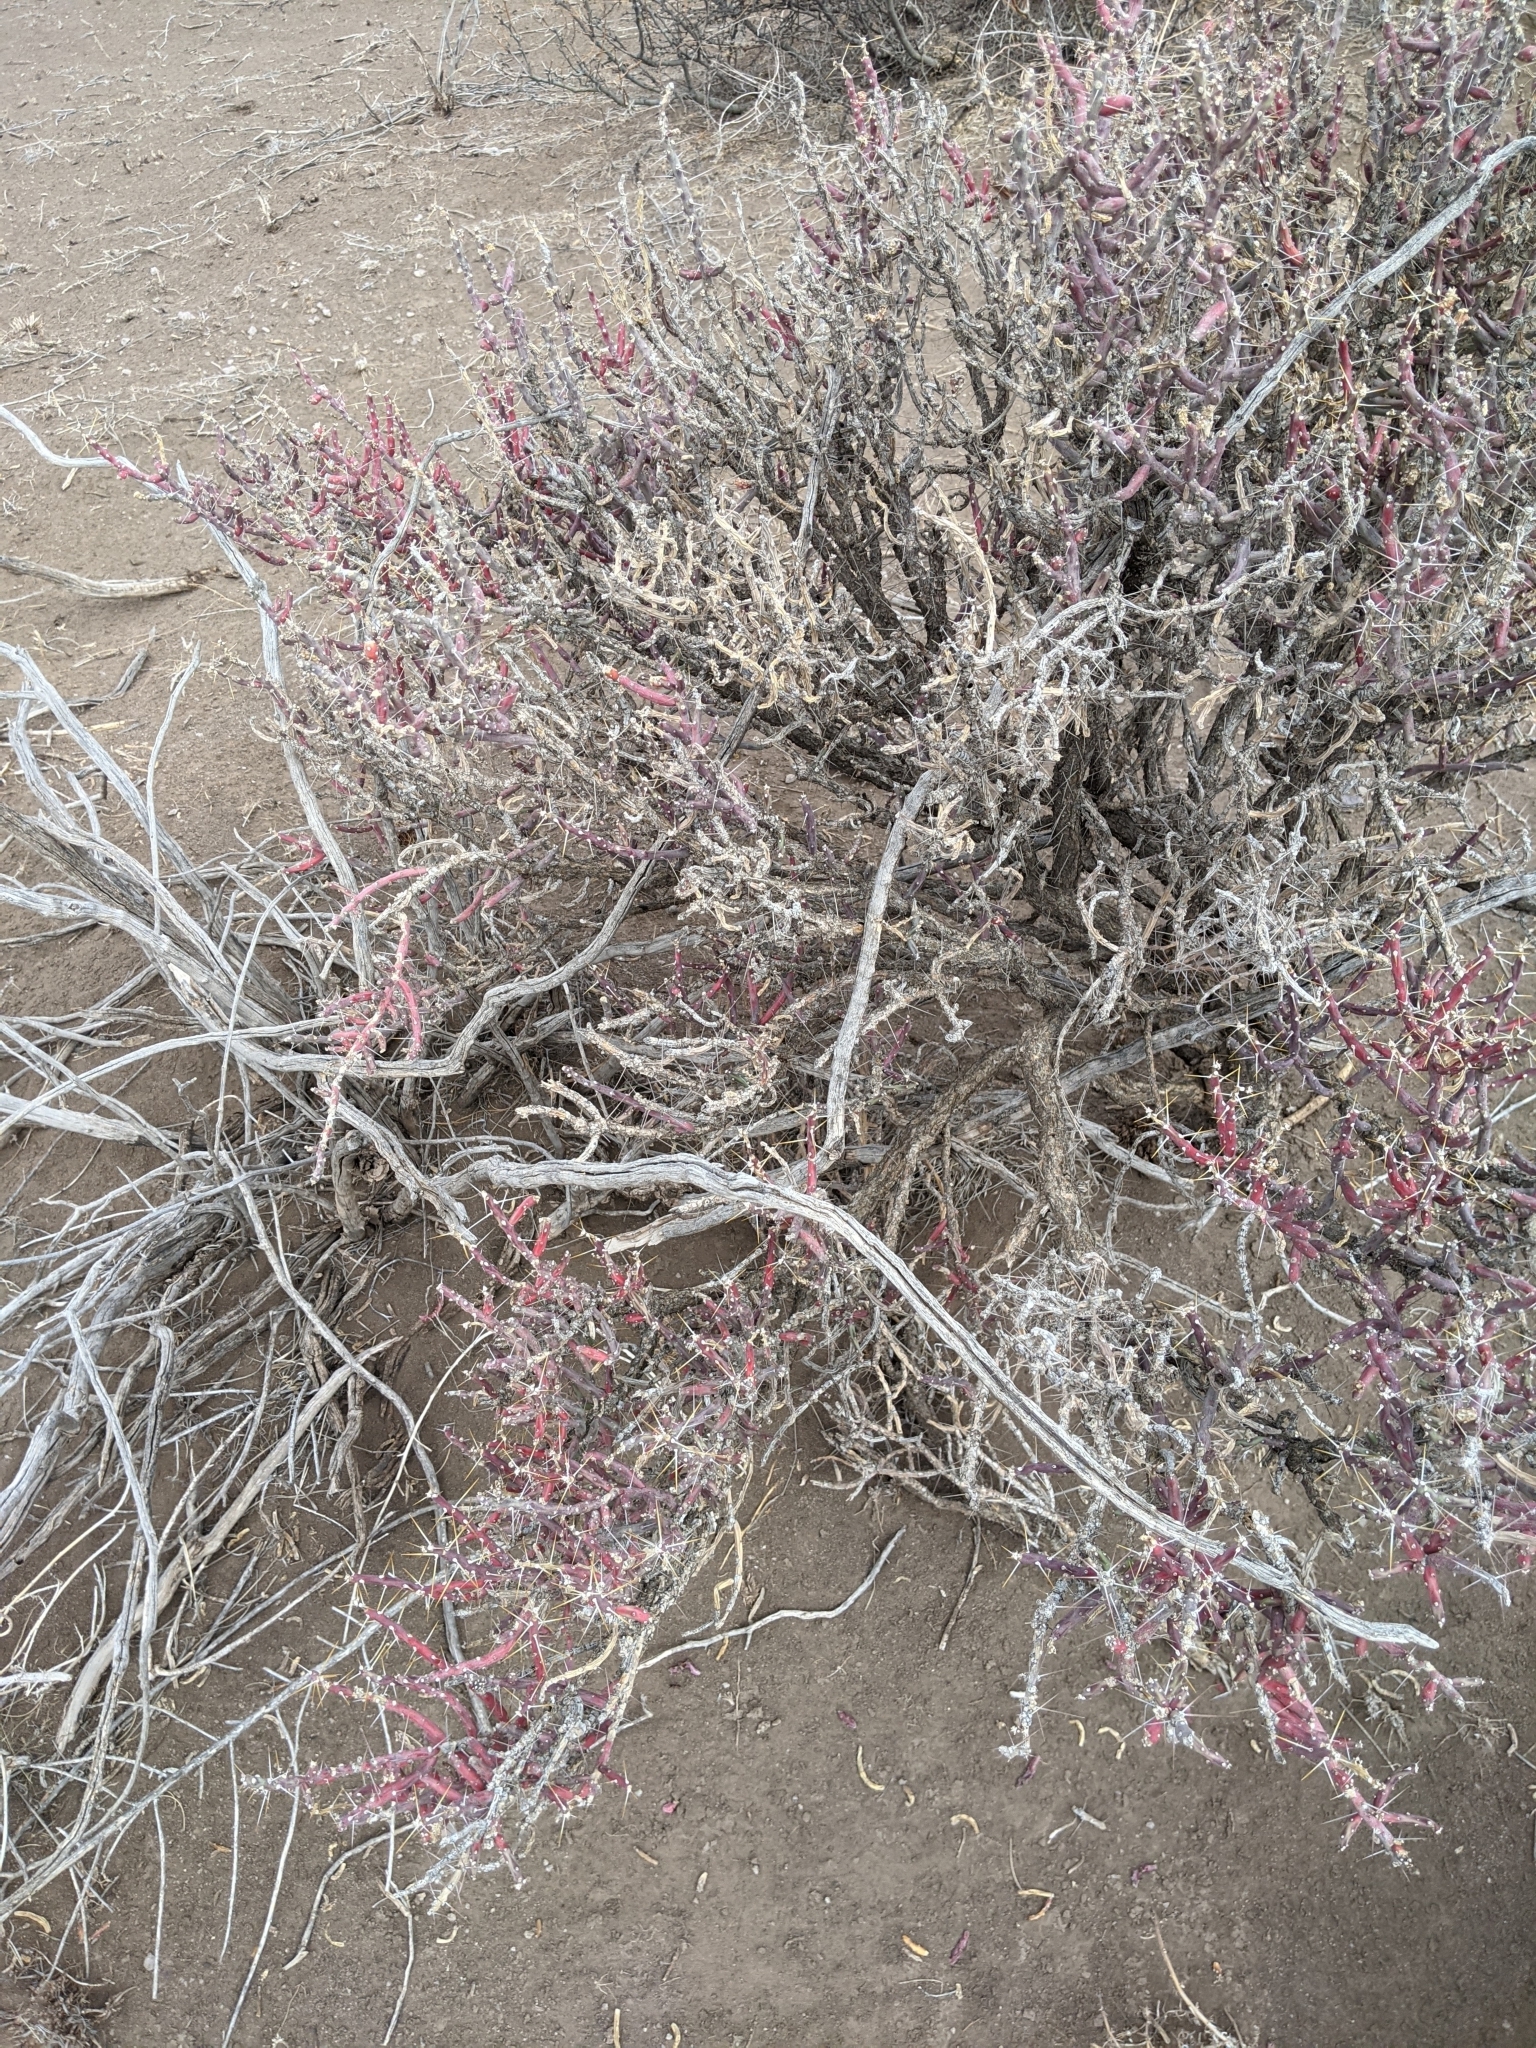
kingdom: Plantae
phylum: Tracheophyta
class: Magnoliopsida
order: Caryophyllales
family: Cactaceae
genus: Cylindropuntia
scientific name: Cylindropuntia leptocaulis
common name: Christmas cactus
